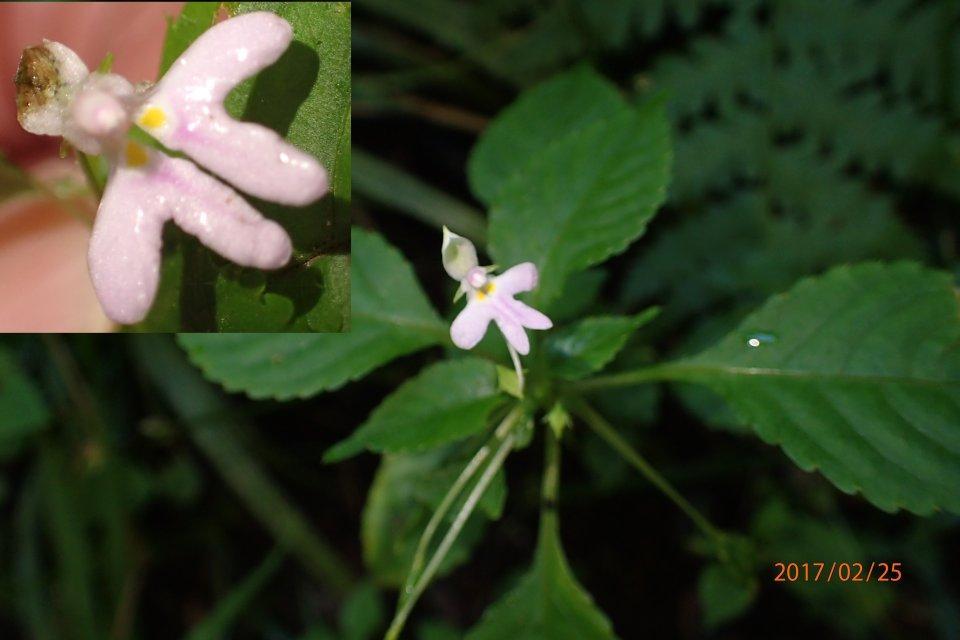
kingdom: Plantae
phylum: Tracheophyta
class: Magnoliopsida
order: Ericales
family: Balsaminaceae
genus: Impatiens
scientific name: Impatiens hochstetteri
